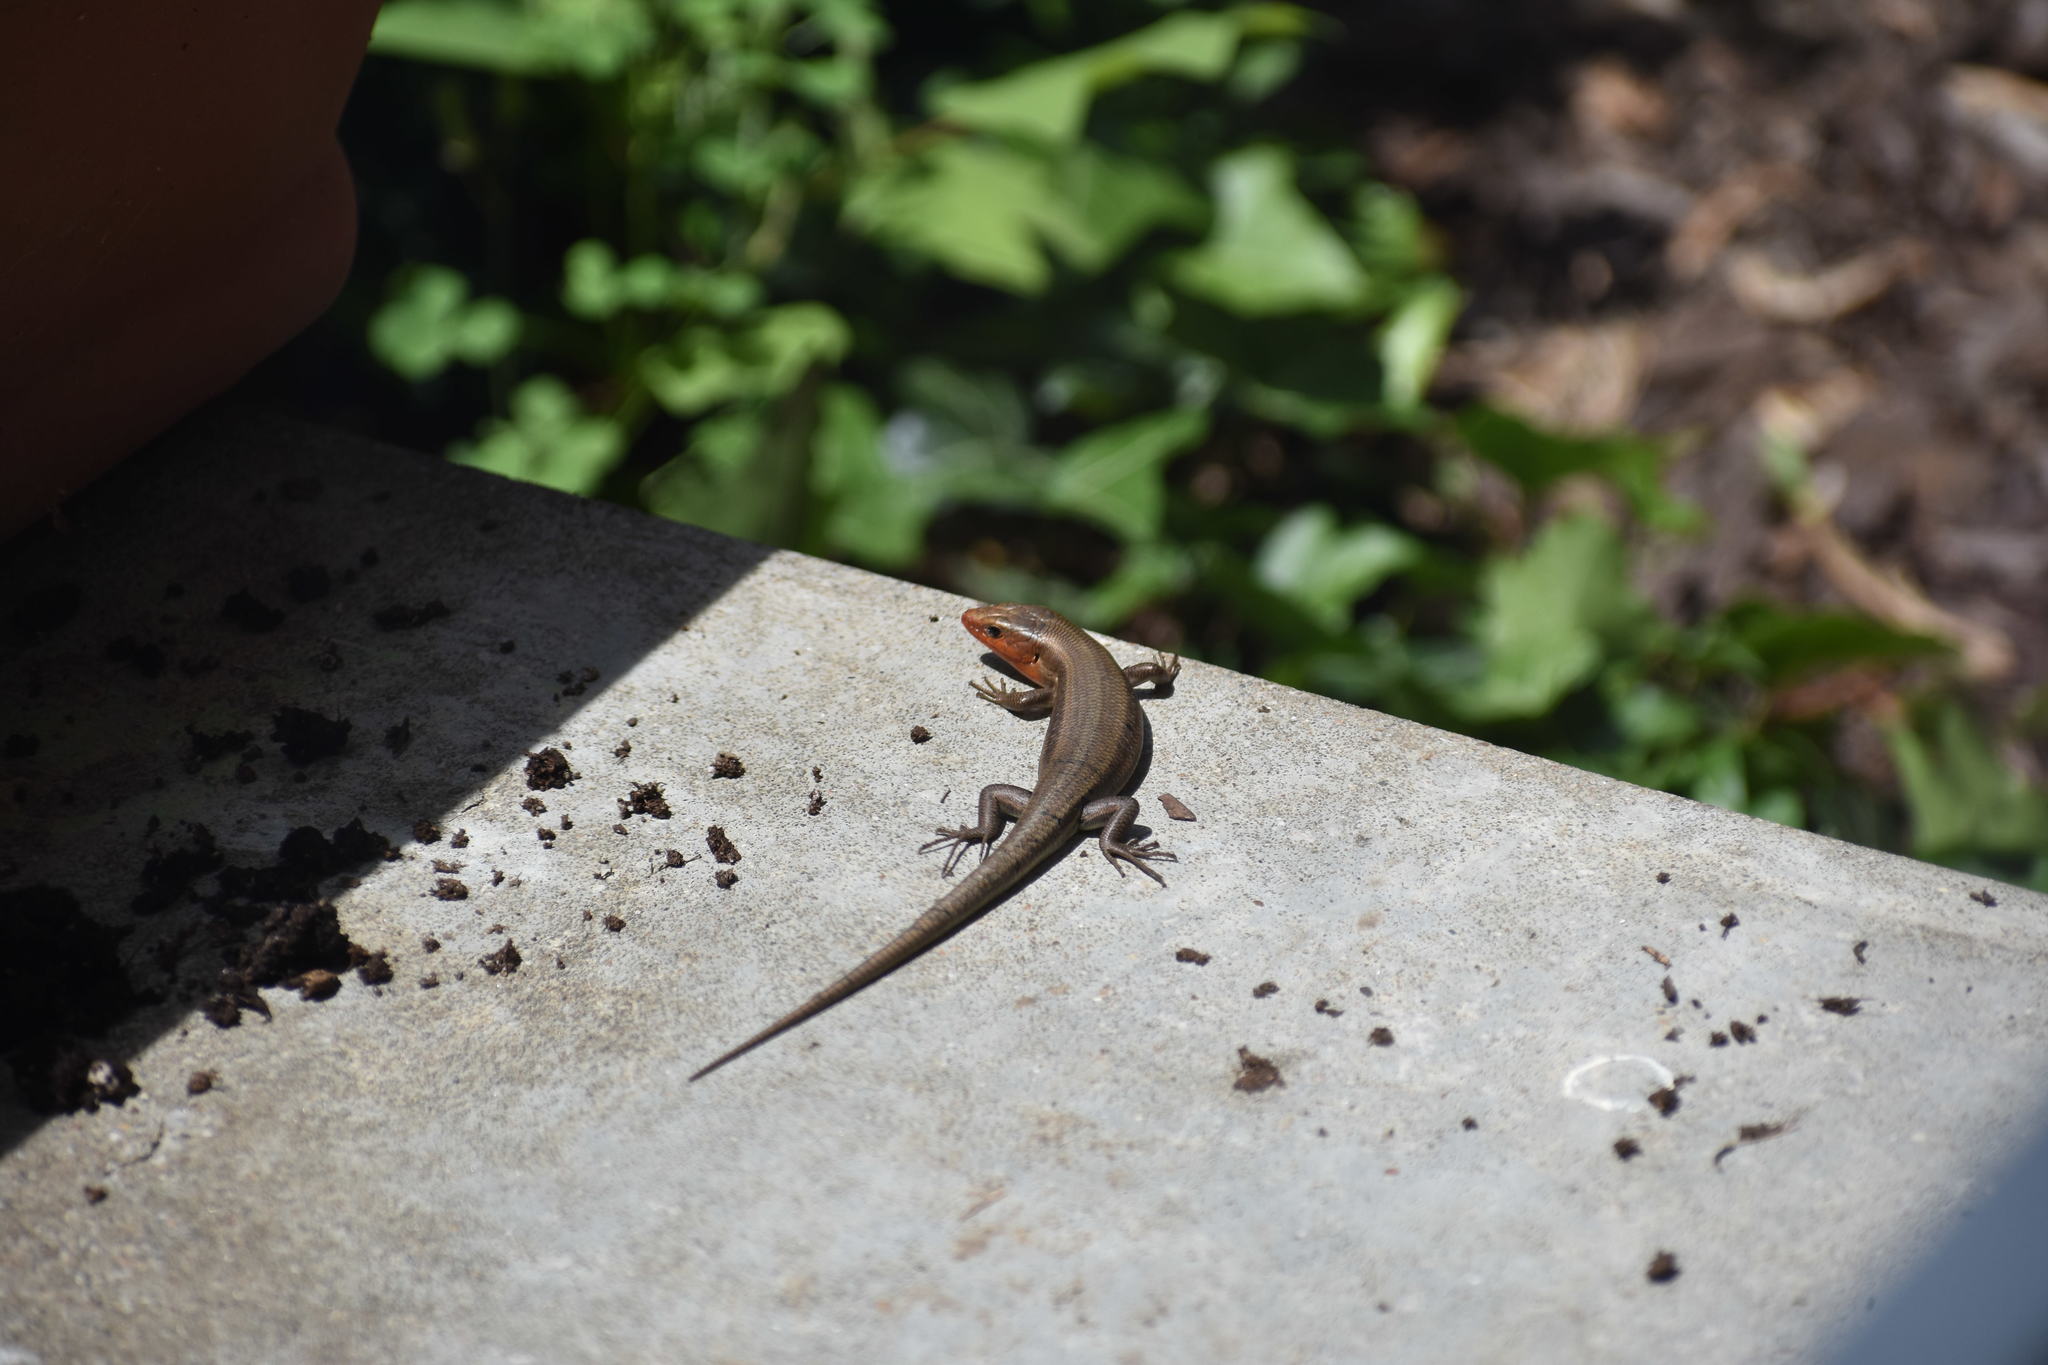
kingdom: Animalia
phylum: Chordata
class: Squamata
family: Scincidae
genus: Plestiodon
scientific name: Plestiodon fasciatus
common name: Five-lined skink
